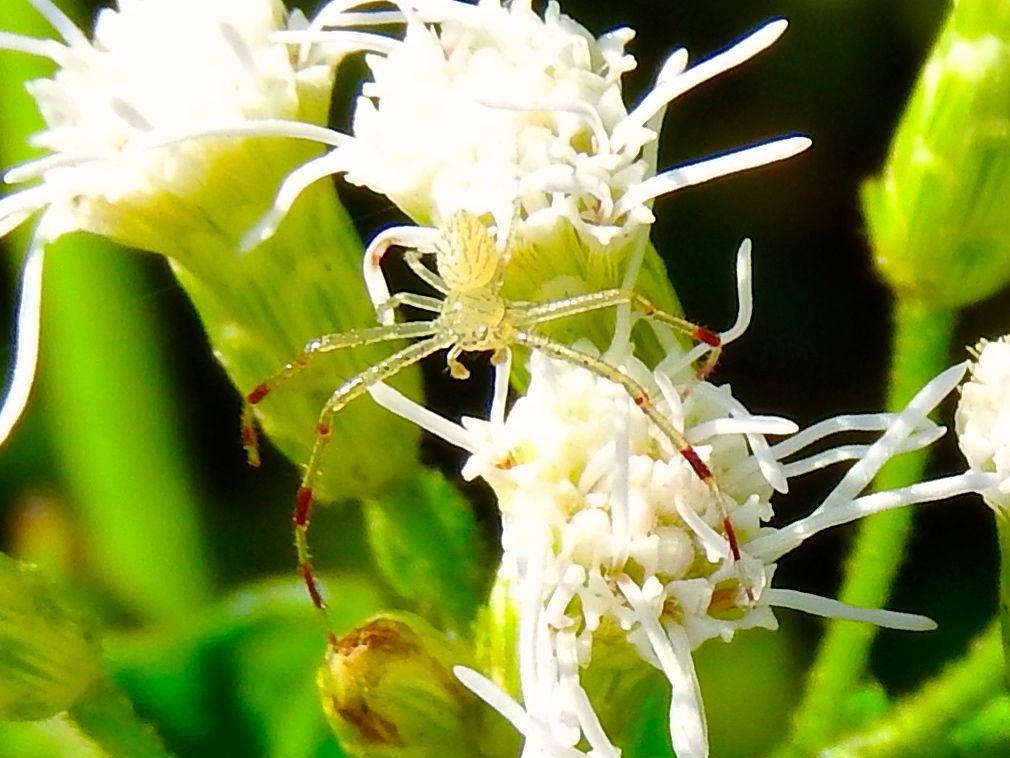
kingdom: Animalia
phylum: Arthropoda
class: Arachnida
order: Araneae
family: Thomisidae
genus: Misumessus
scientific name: Misumessus
